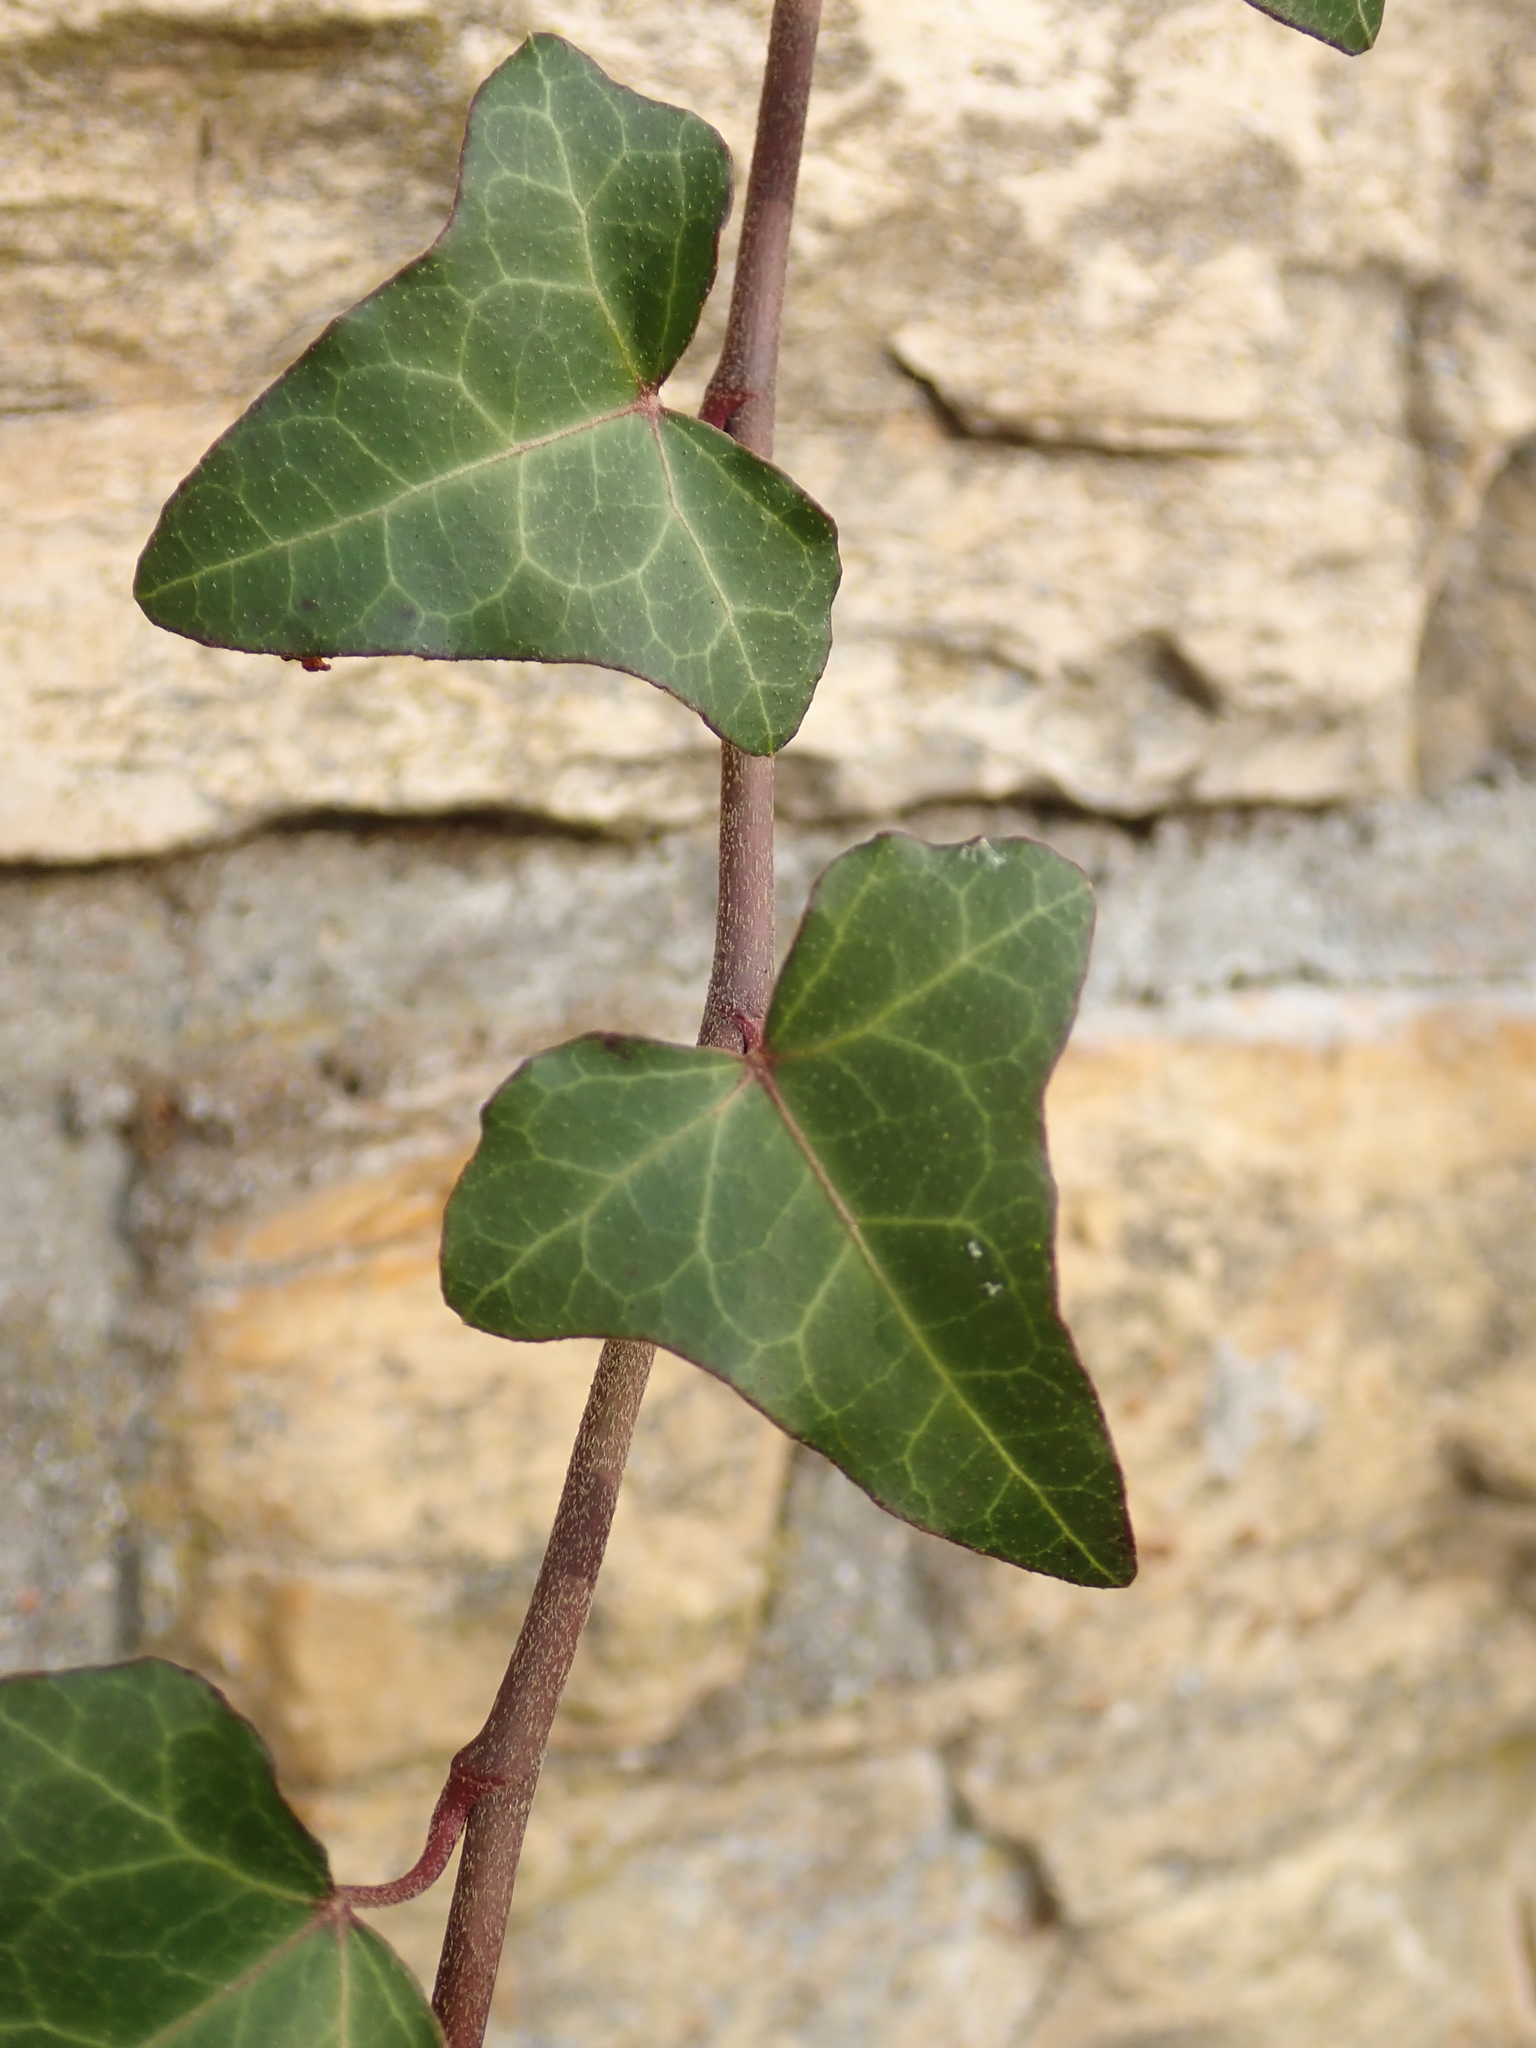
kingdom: Plantae
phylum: Tracheophyta
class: Magnoliopsida
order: Apiales
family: Araliaceae
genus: Hedera
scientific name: Hedera helix
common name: Ivy
